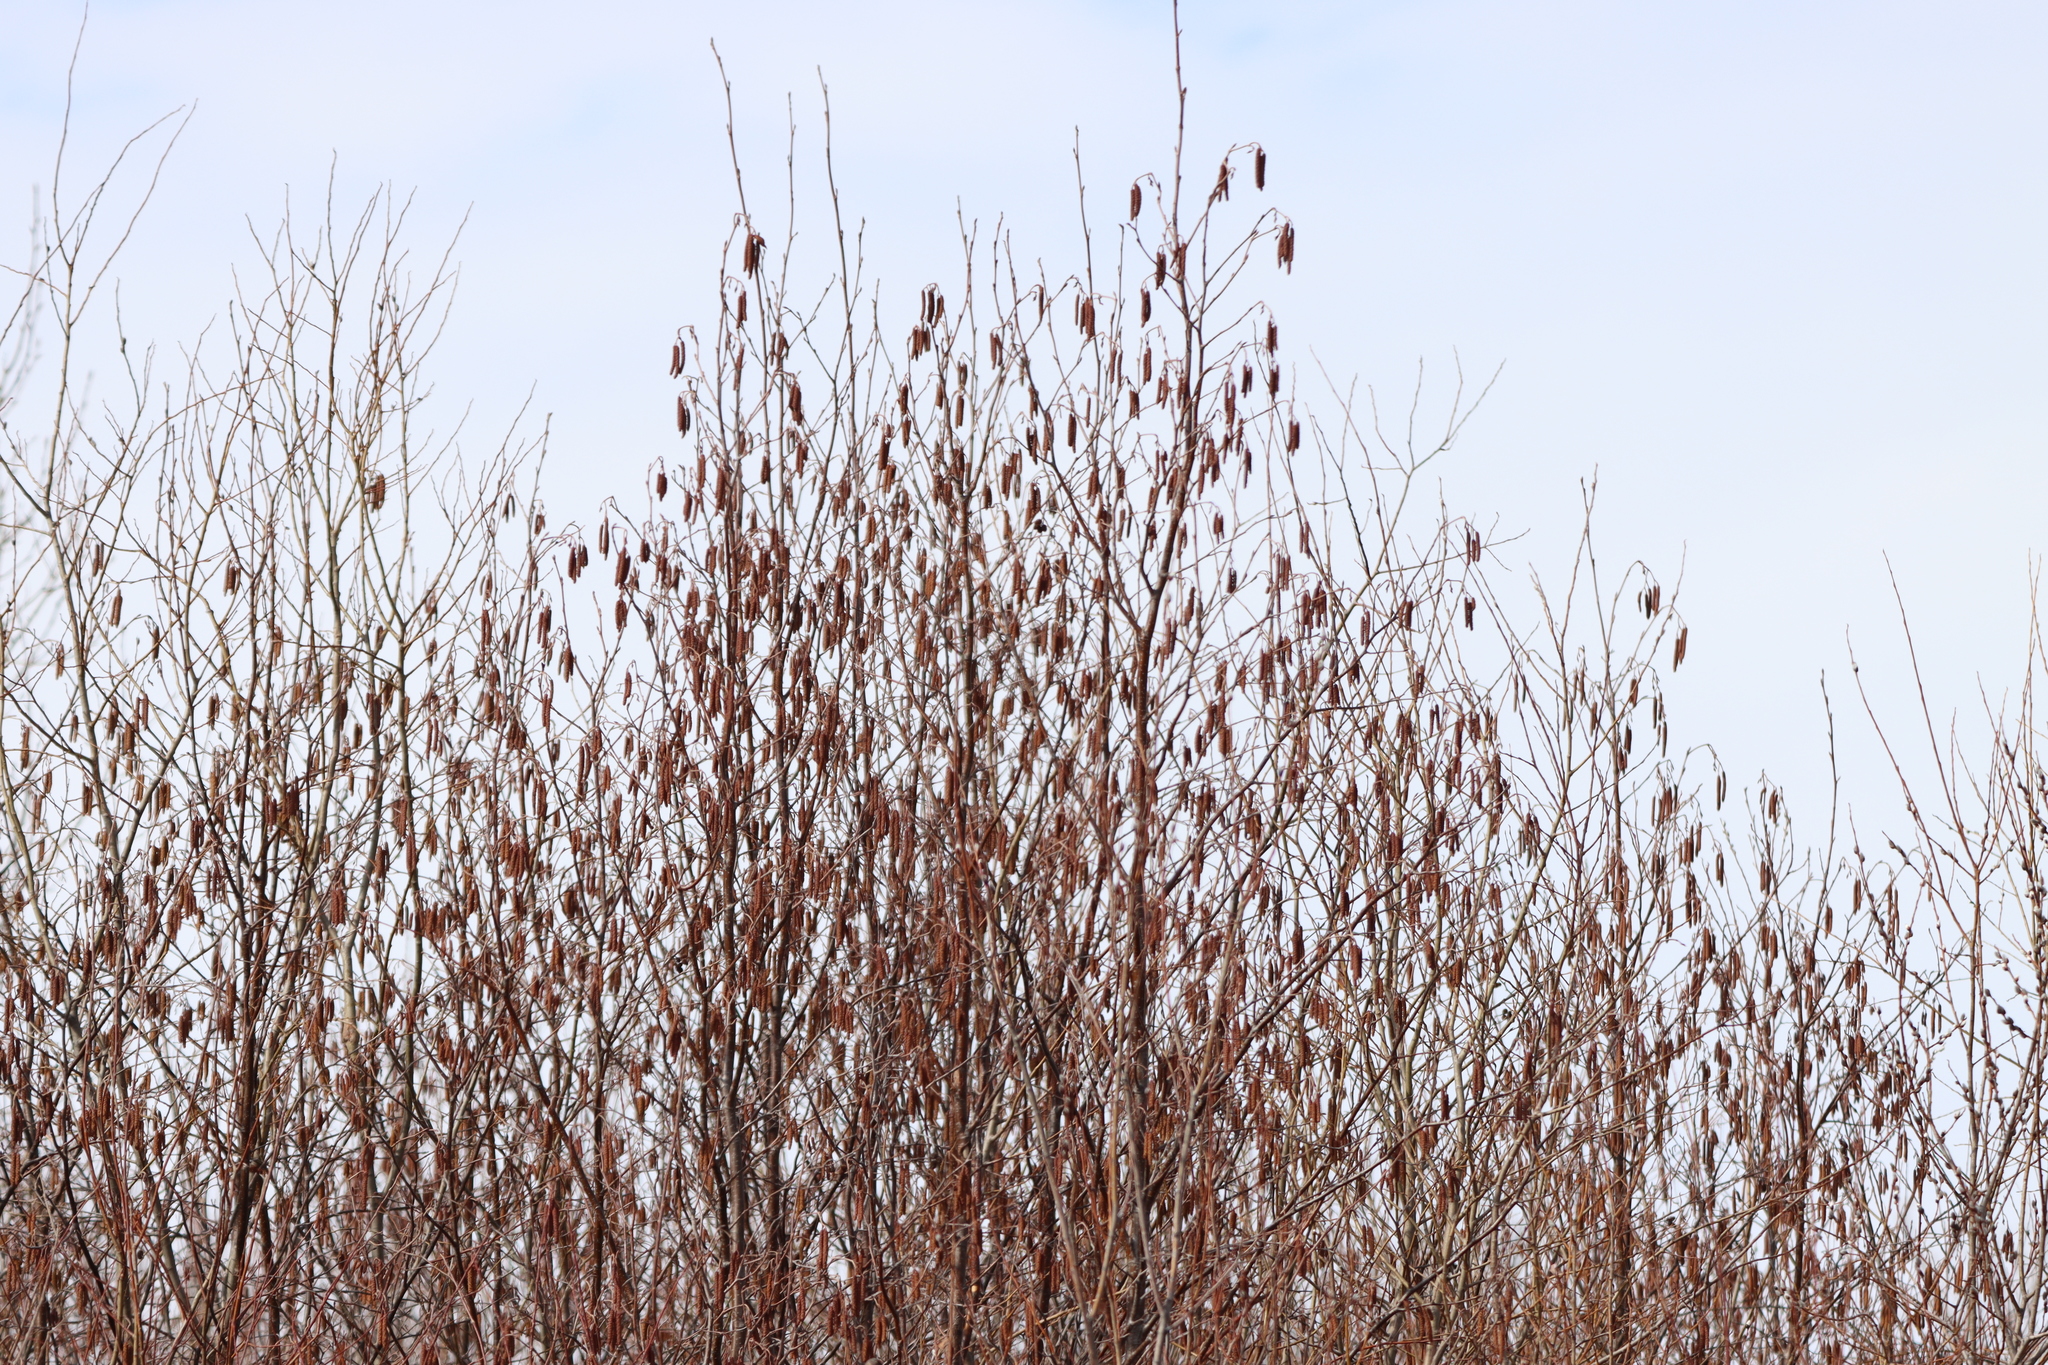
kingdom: Plantae
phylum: Tracheophyta
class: Magnoliopsida
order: Fagales
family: Betulaceae
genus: Alnus
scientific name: Alnus incana
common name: Grey alder
